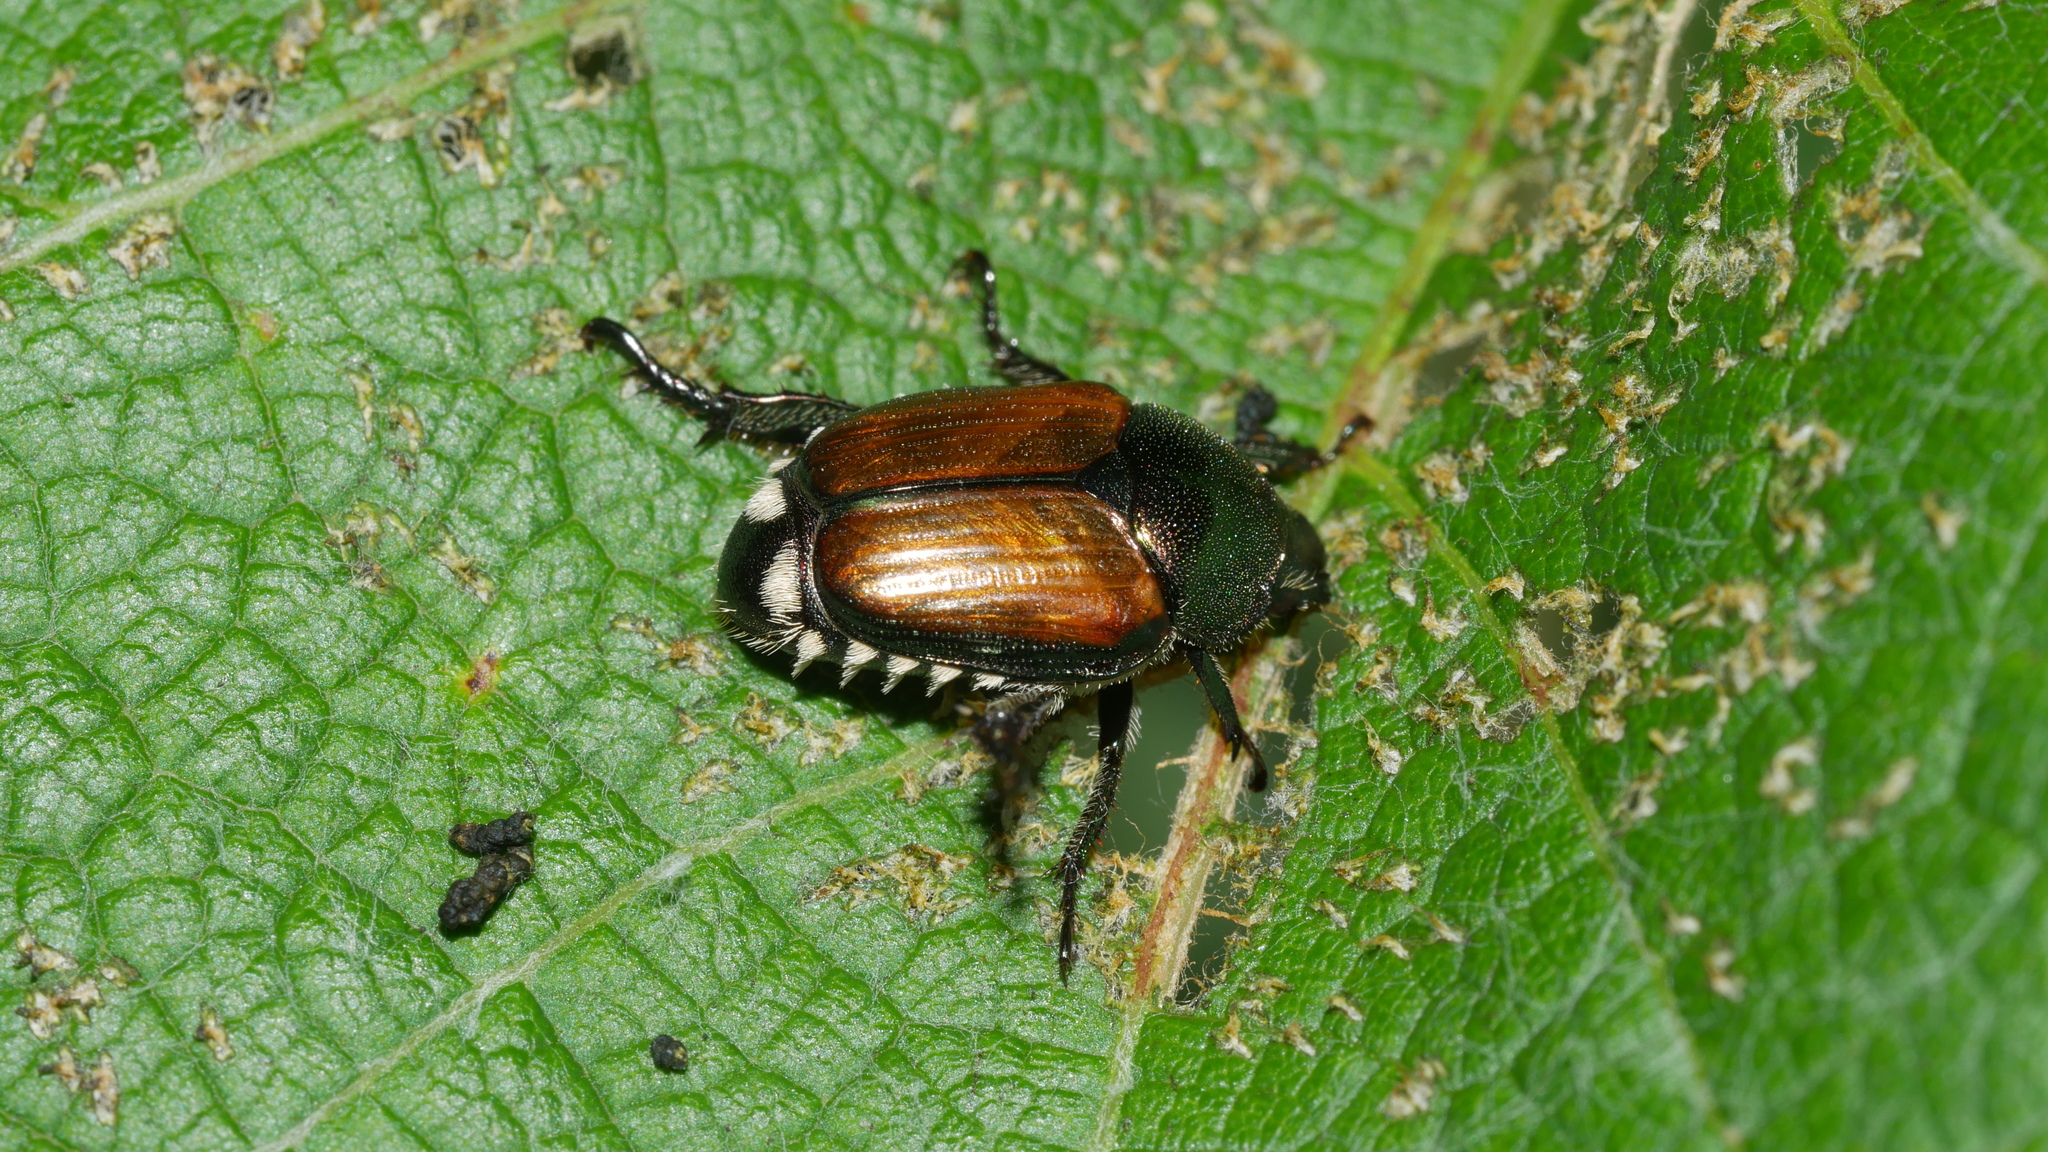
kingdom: Animalia
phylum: Arthropoda
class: Insecta
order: Coleoptera
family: Scarabaeidae
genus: Popillia
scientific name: Popillia japonica
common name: Japanese beetle
